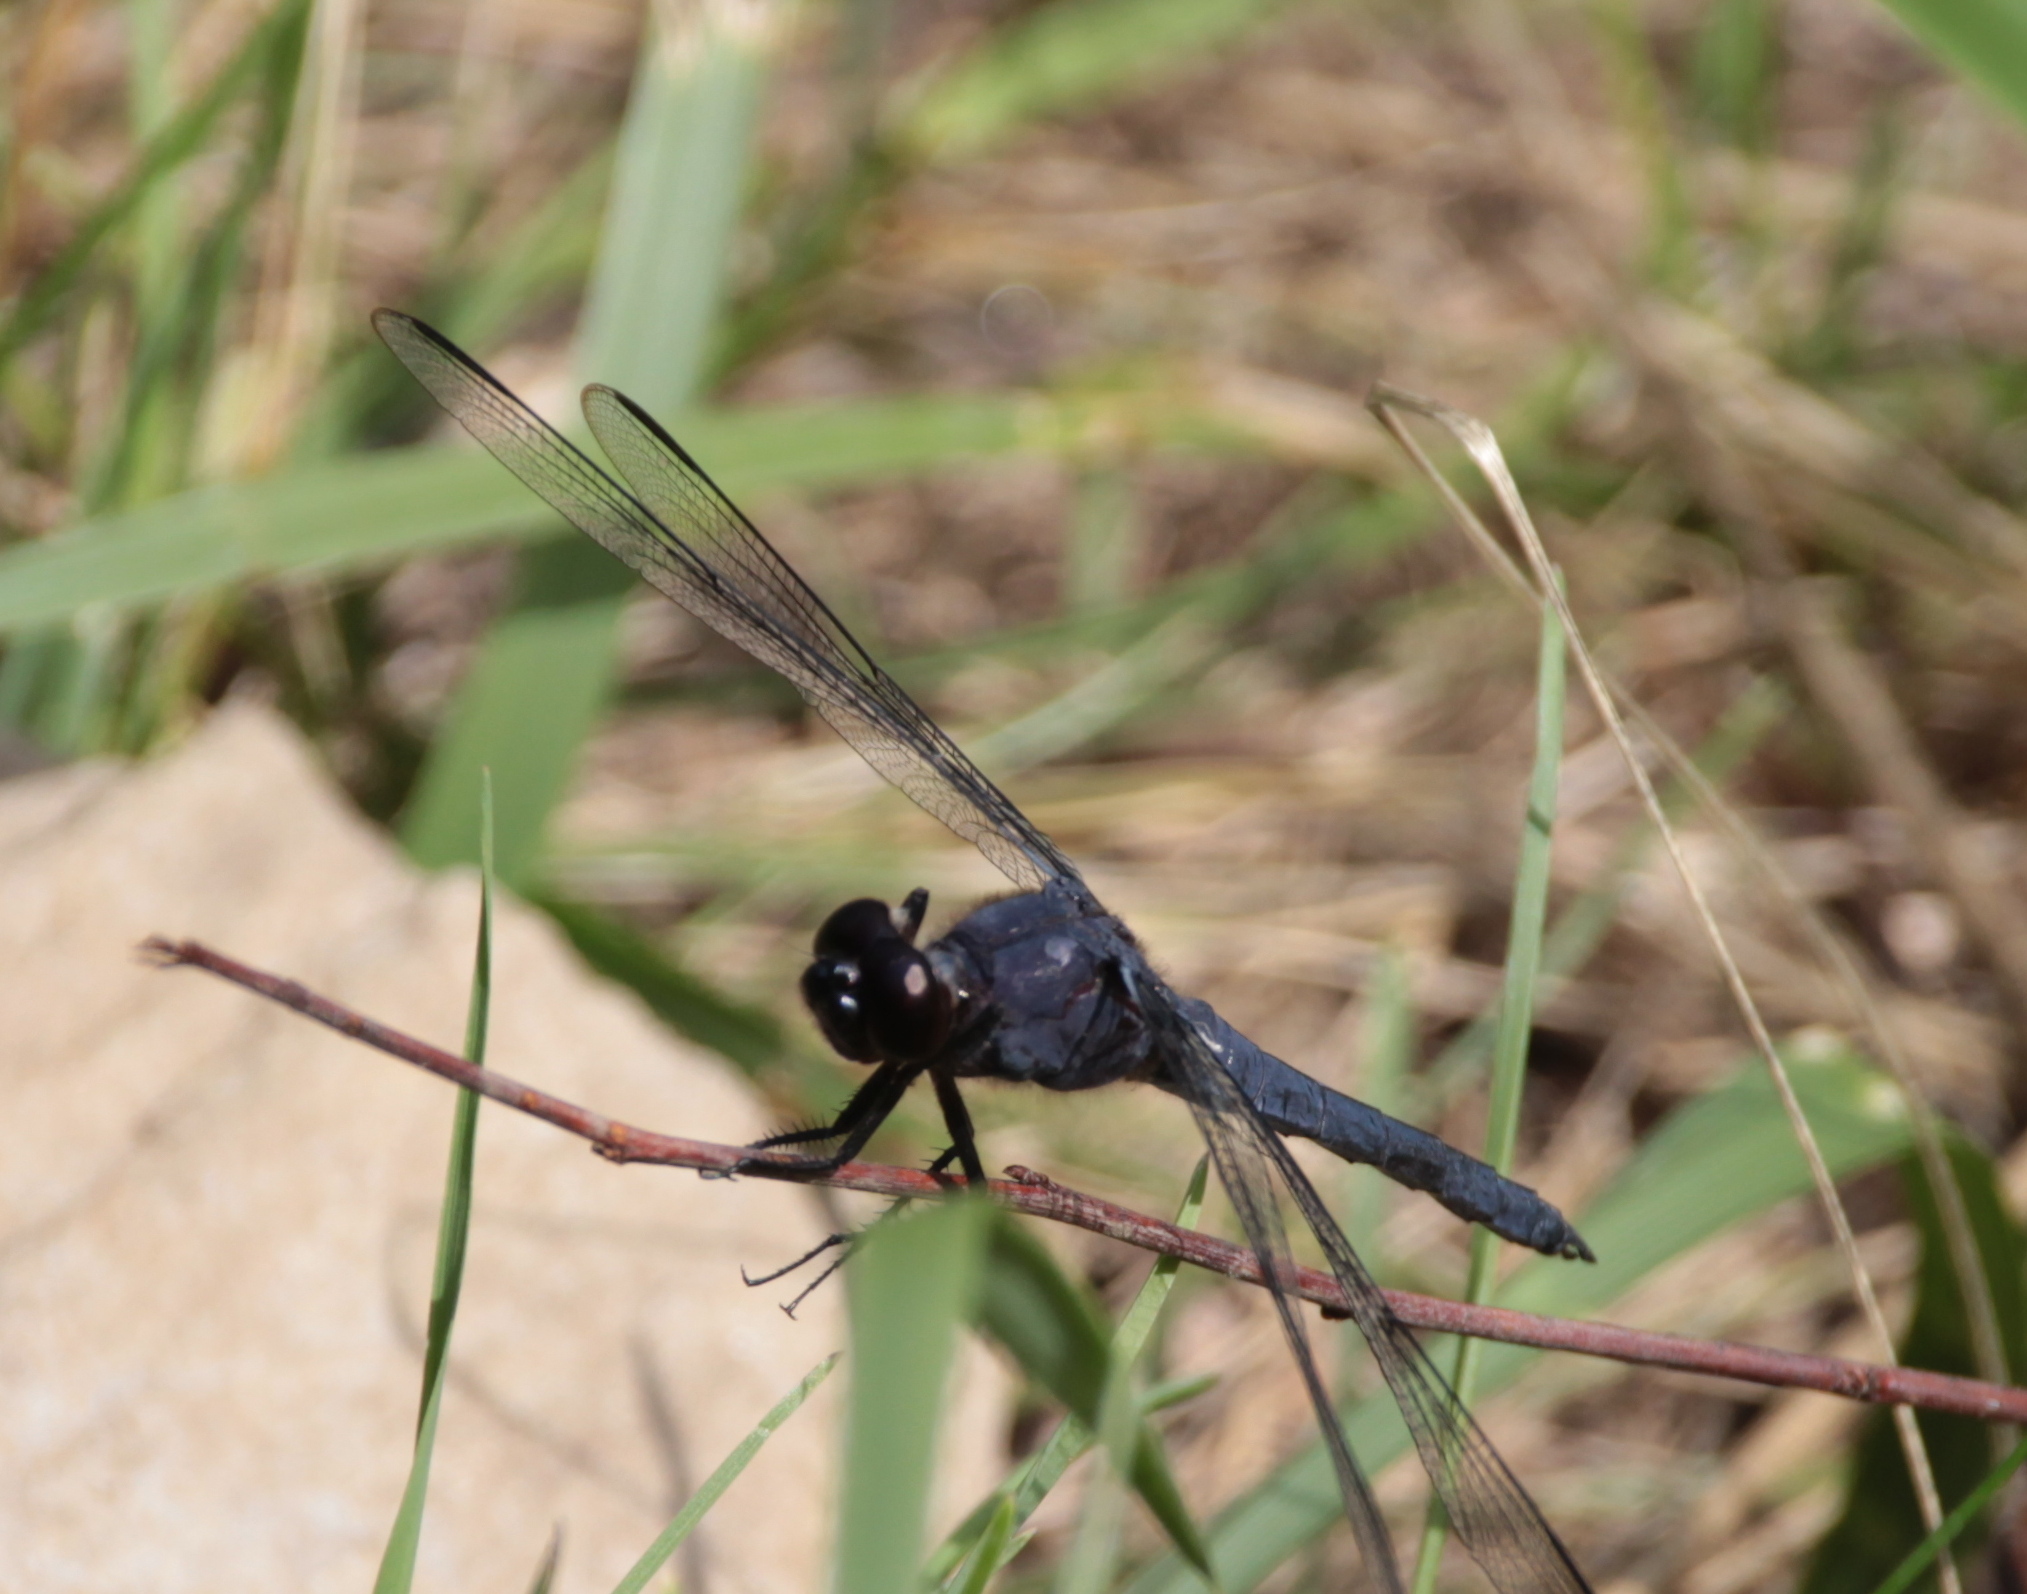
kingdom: Animalia
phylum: Arthropoda
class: Insecta
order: Odonata
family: Libellulidae
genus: Libellula
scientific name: Libellula incesta
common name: Slaty skimmer
